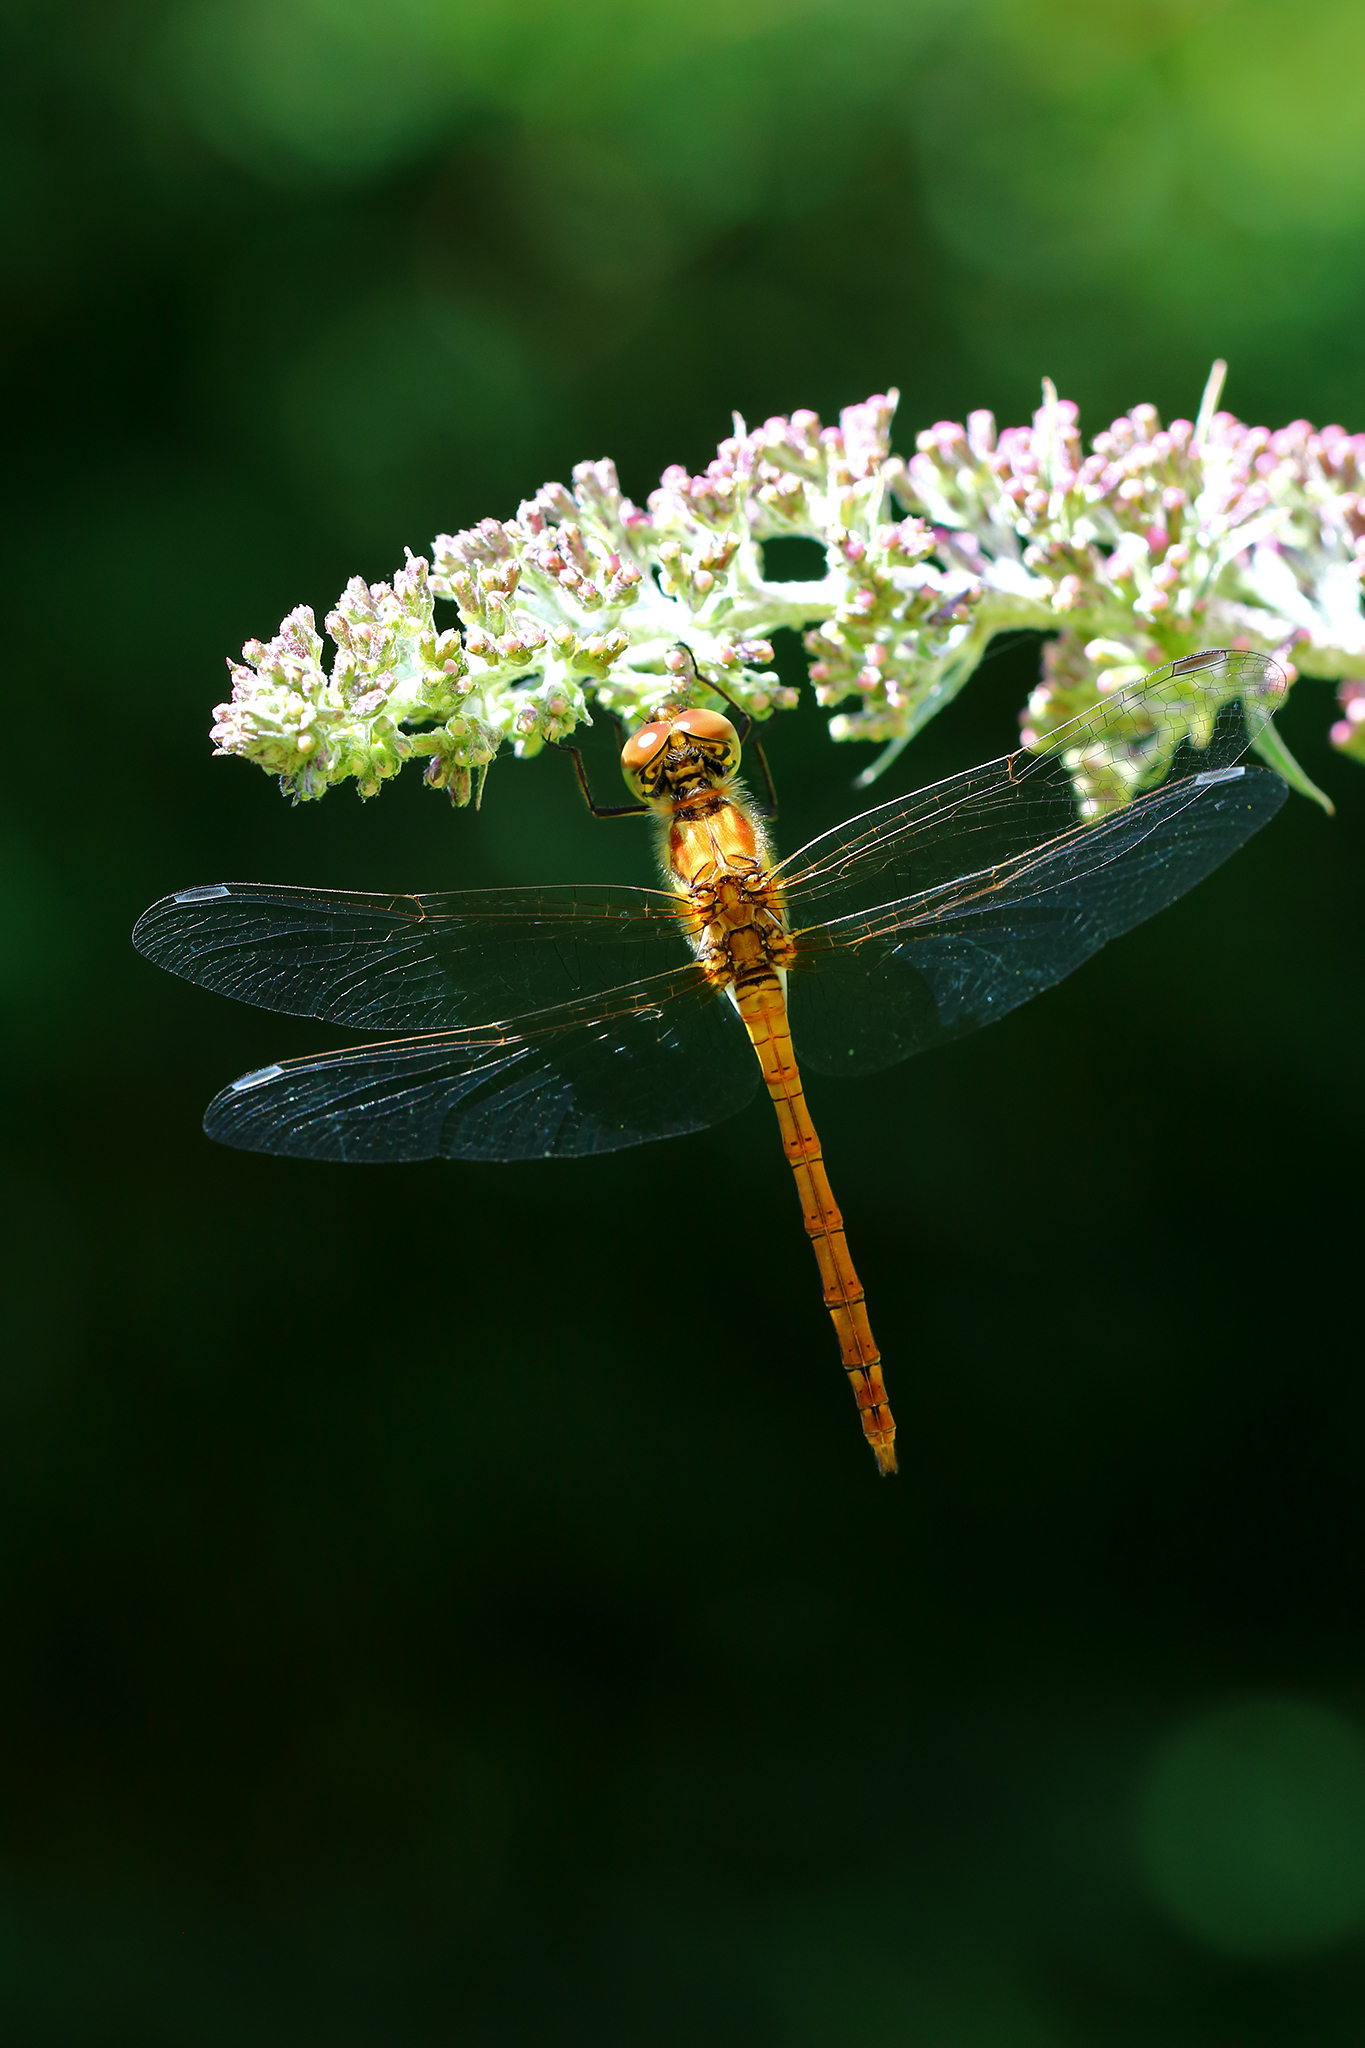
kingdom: Animalia
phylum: Arthropoda
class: Insecta
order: Odonata
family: Libellulidae
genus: Sympetrum
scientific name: Sympetrum striolatum
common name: Common darter
